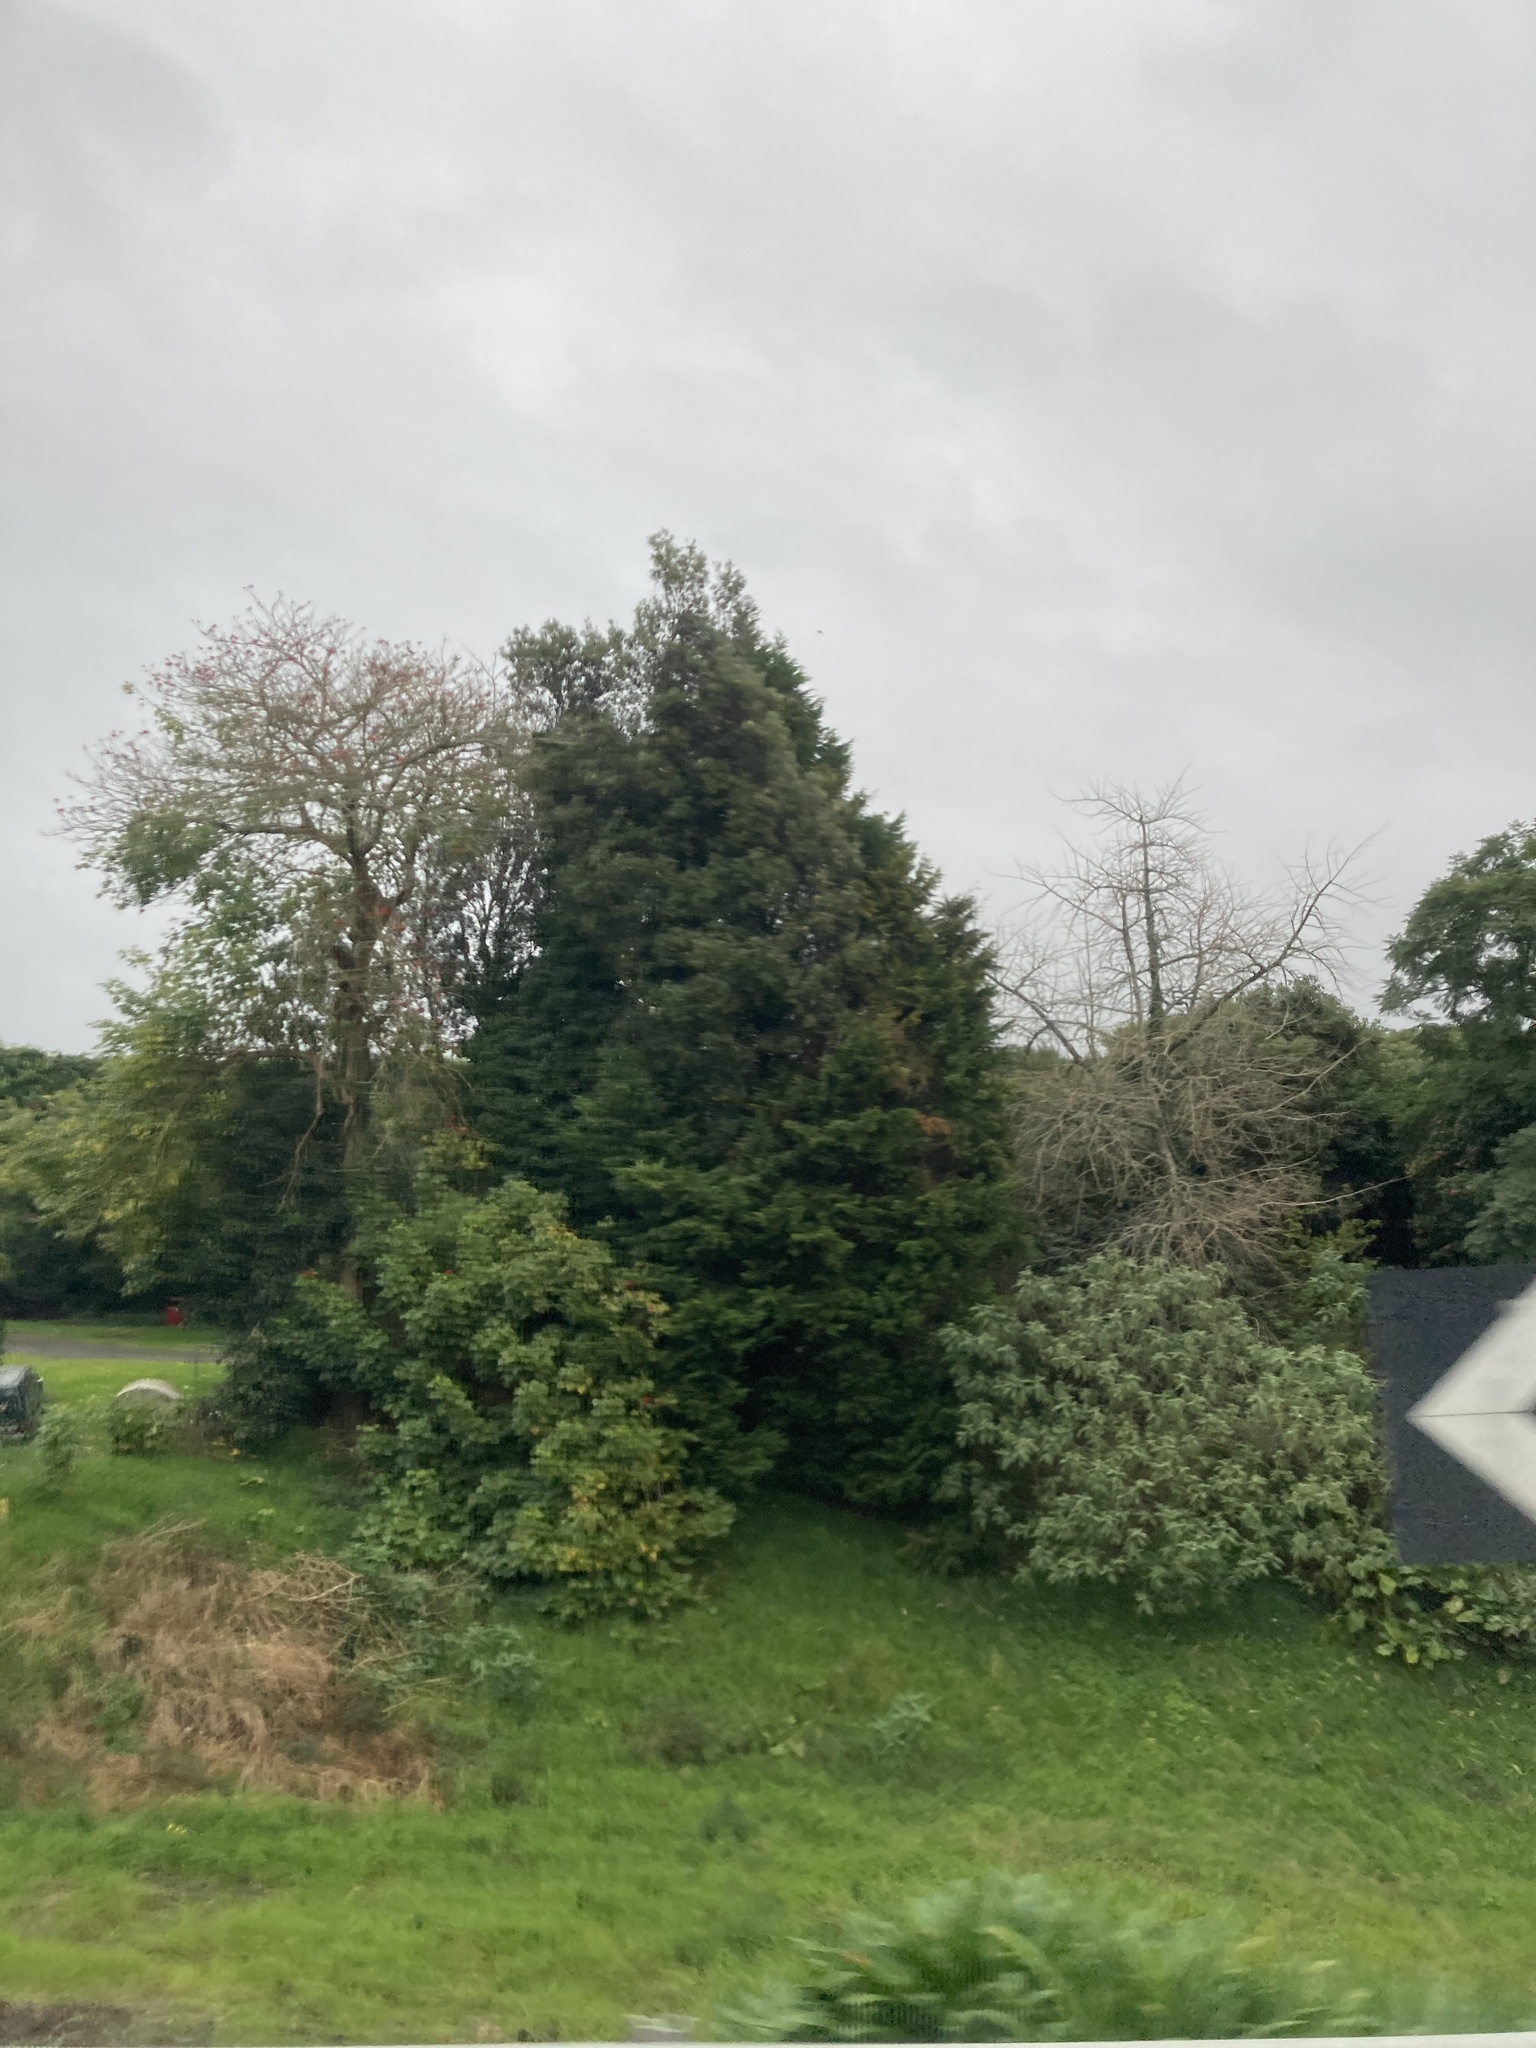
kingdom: Plantae
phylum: Tracheophyta
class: Magnoliopsida
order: Solanales
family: Solanaceae
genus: Solanum
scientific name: Solanum mauritianum
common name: Earleaf nightshade
